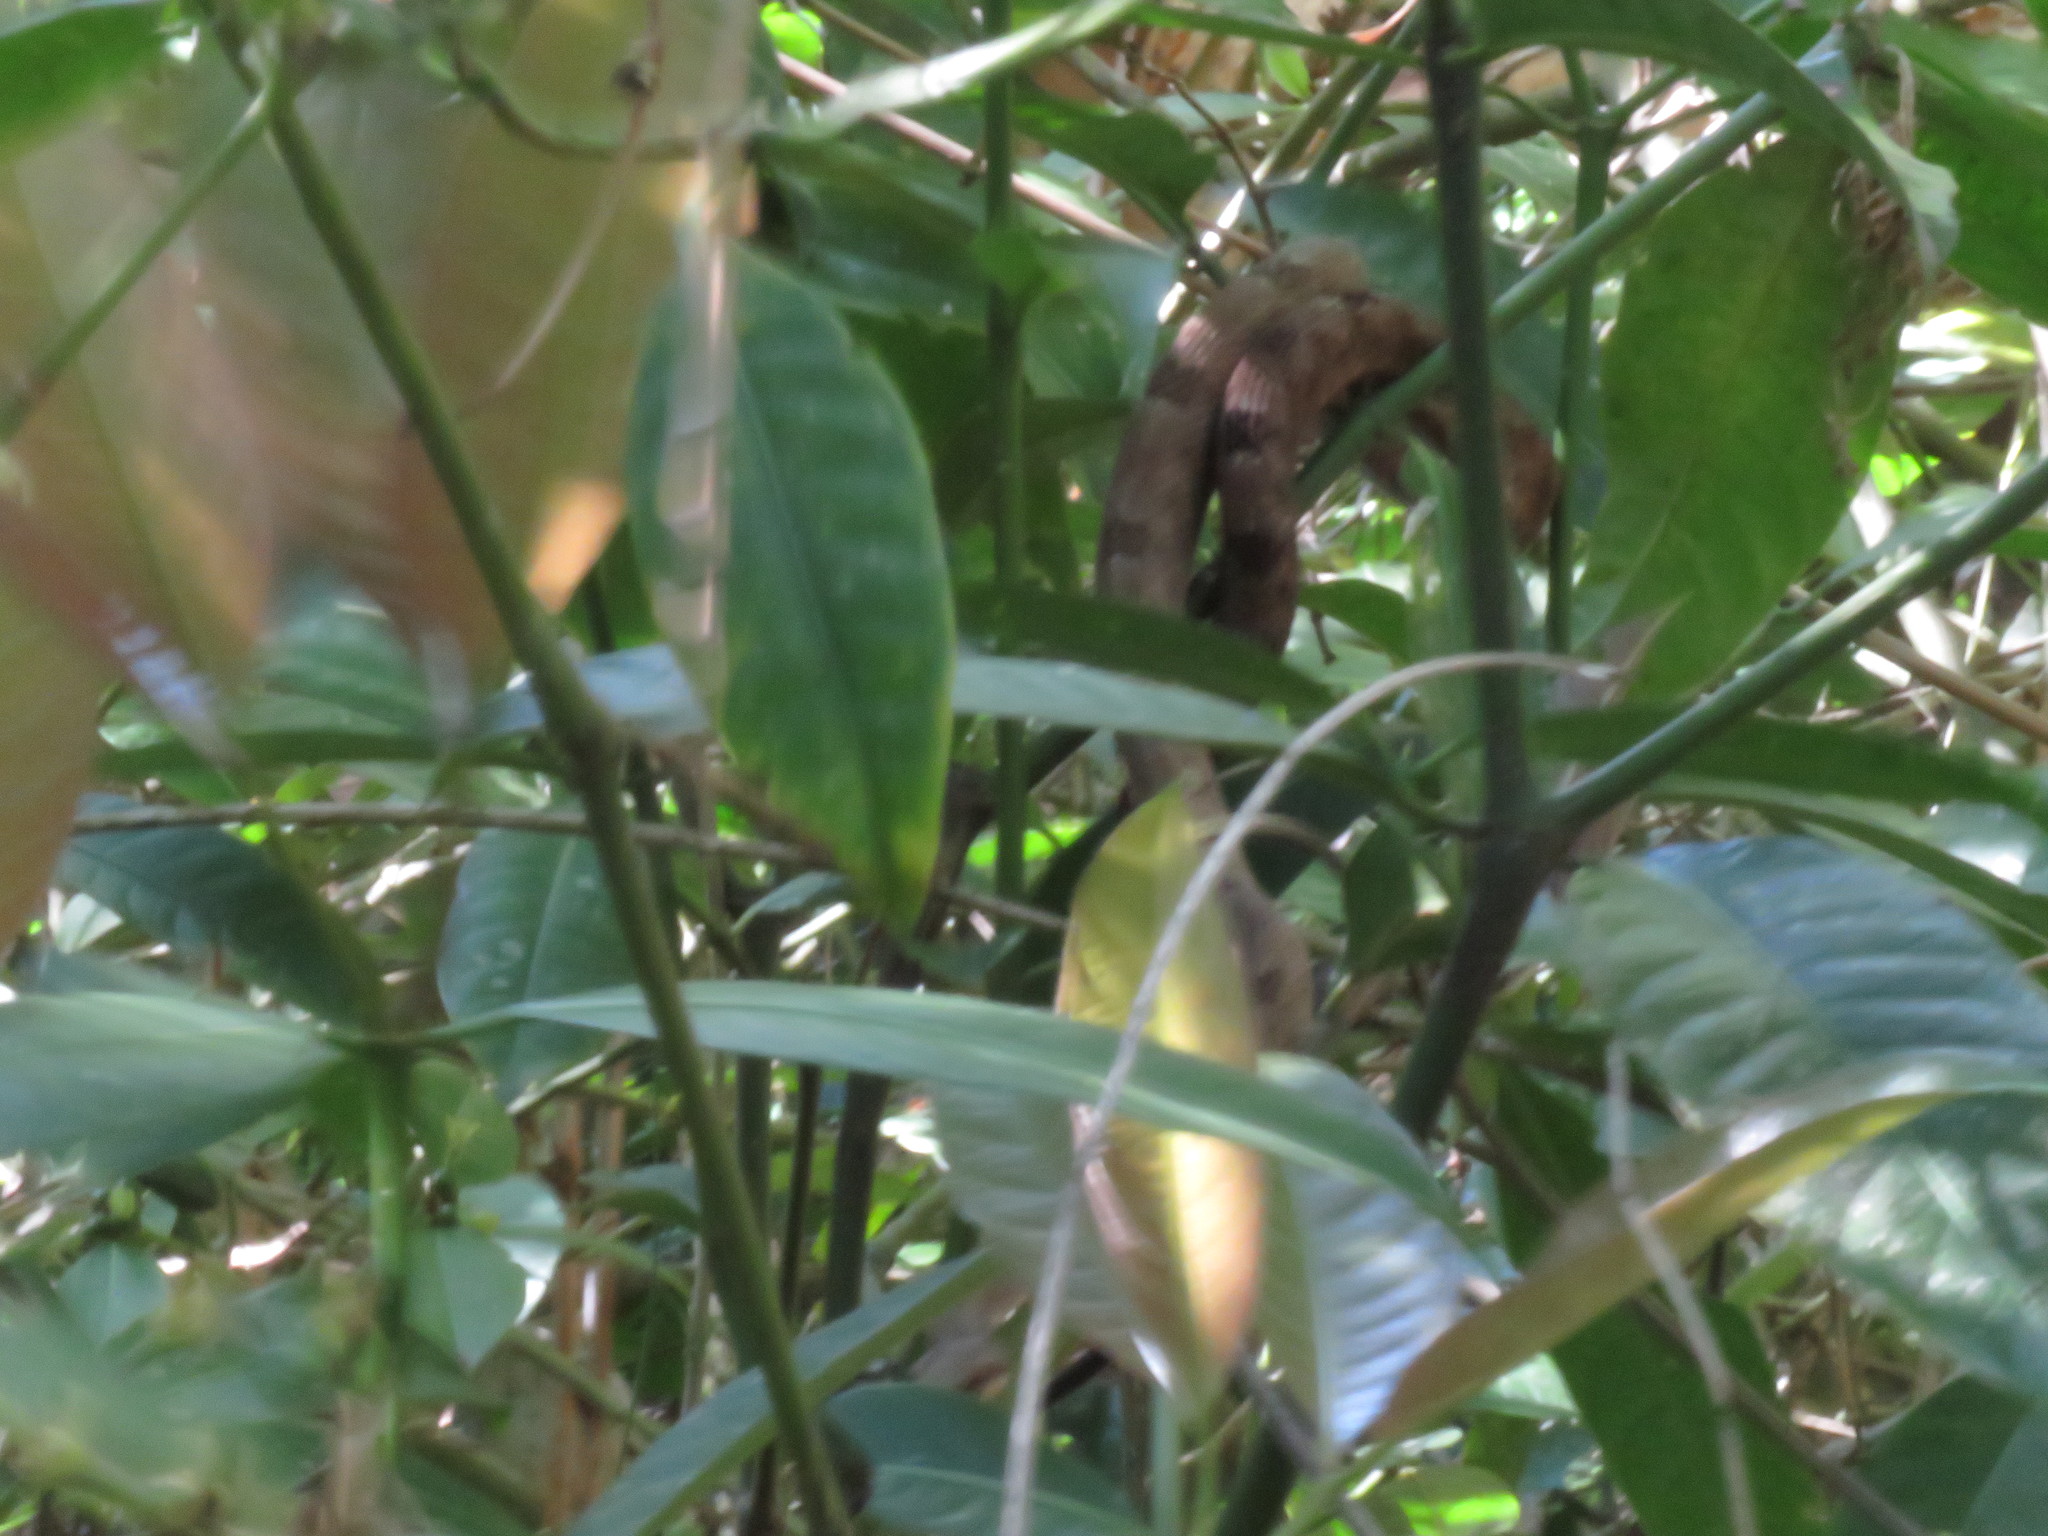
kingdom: Animalia
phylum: Chordata
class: Squamata
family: Colubridae
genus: Tropidodryas
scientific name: Tropidodryas serra
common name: Serra snake
